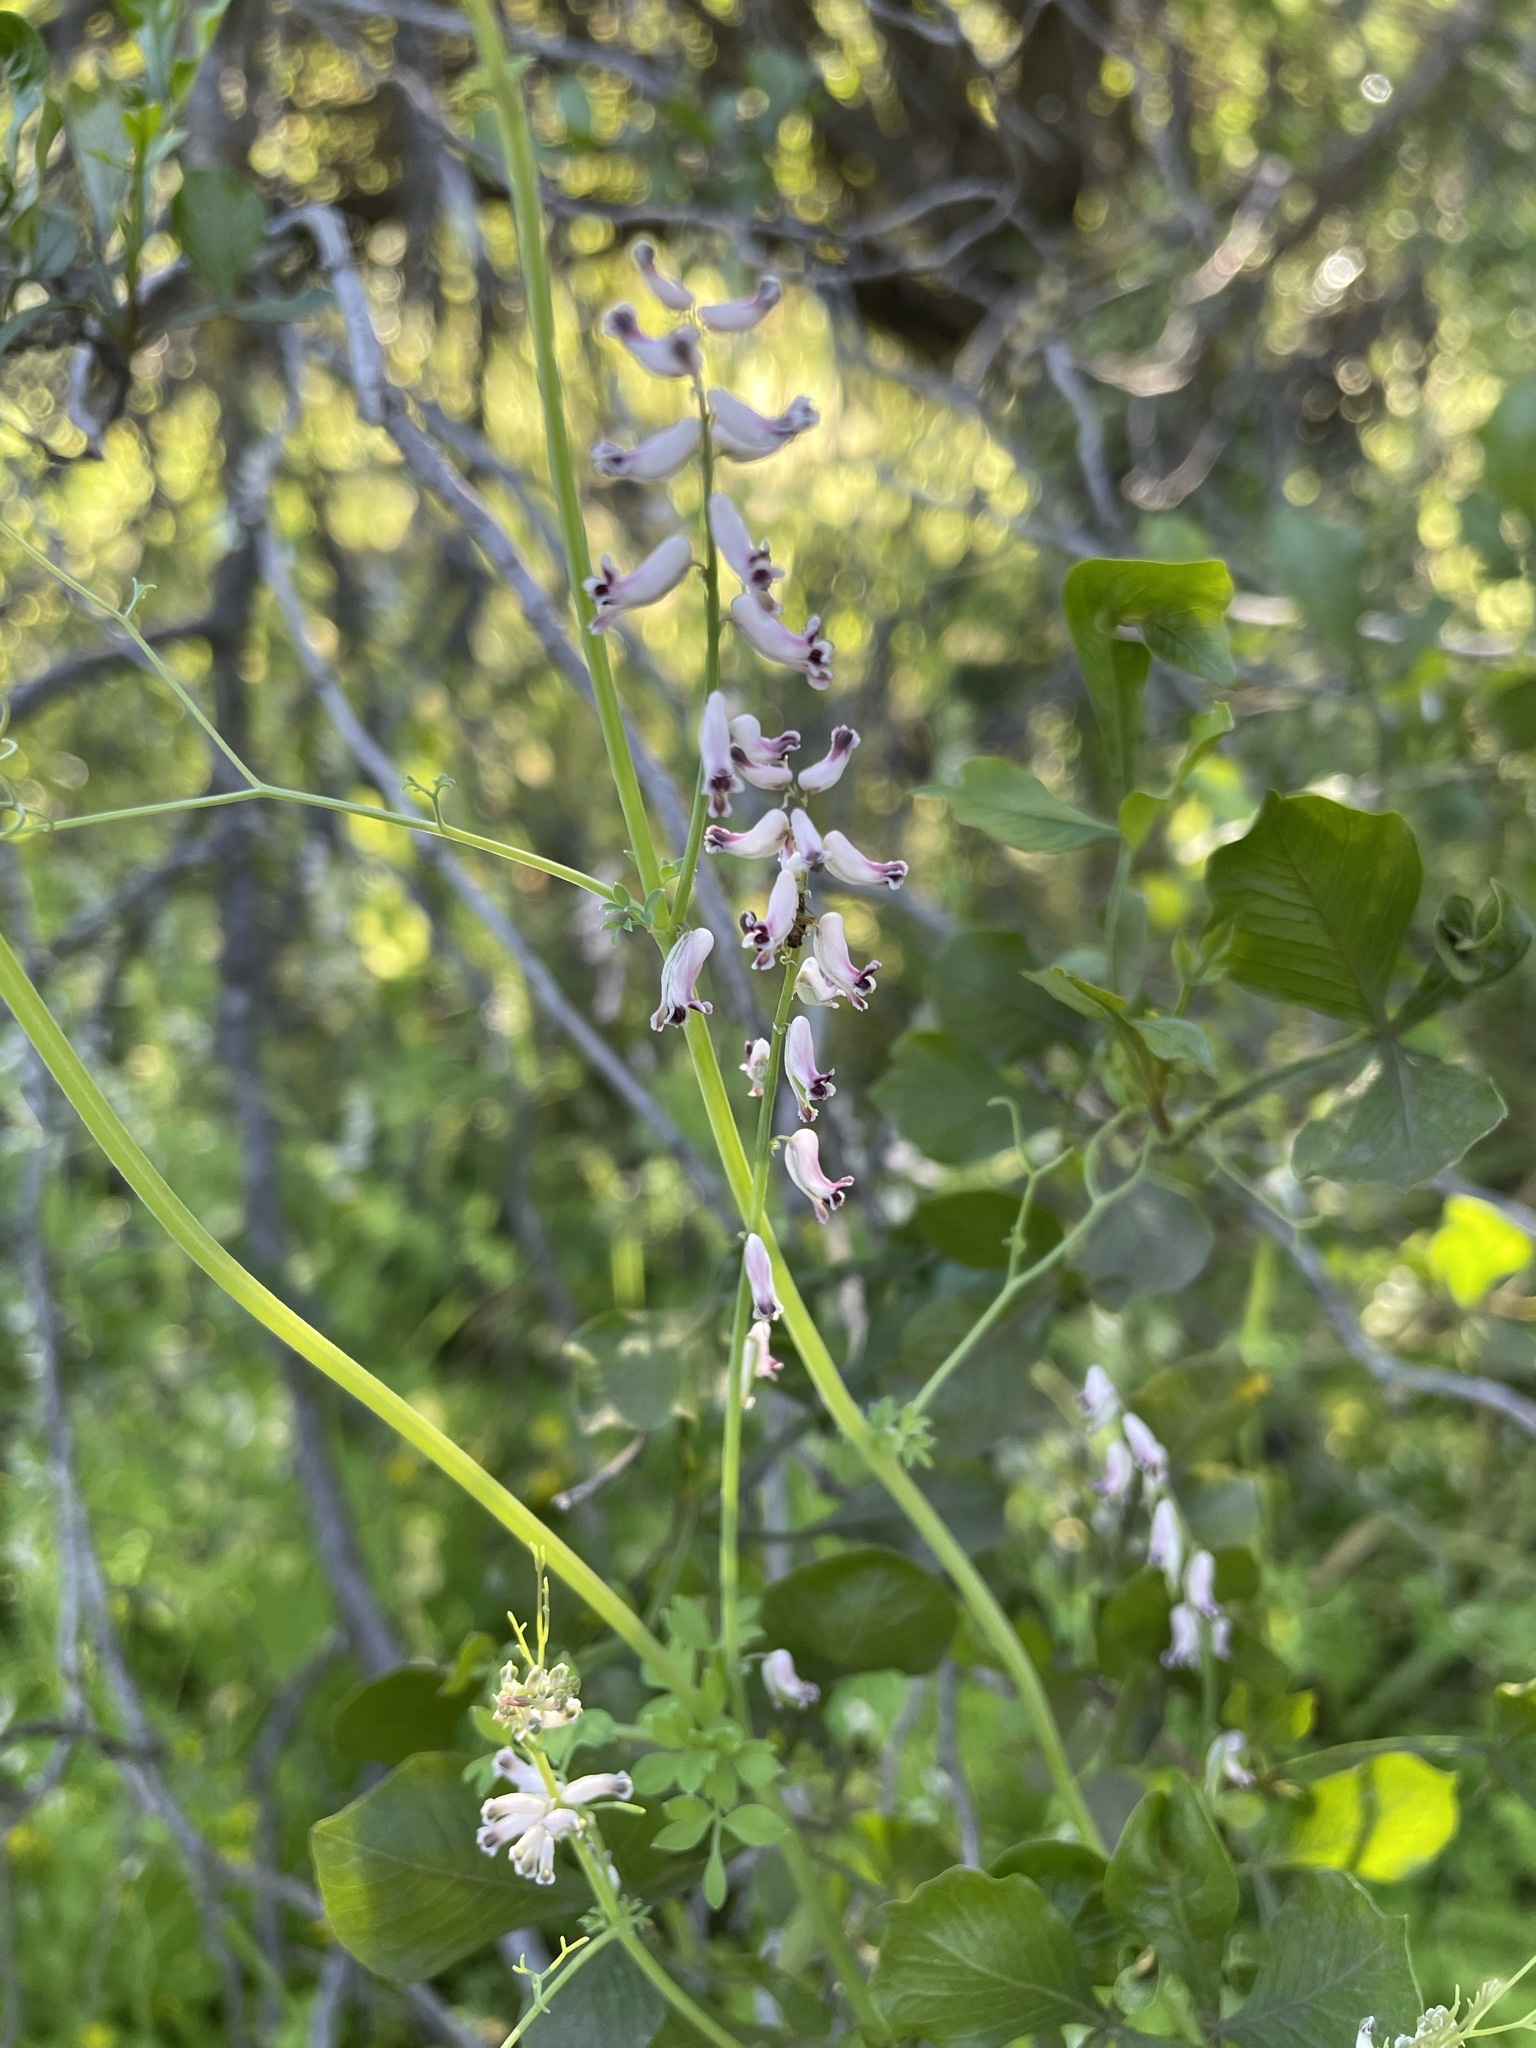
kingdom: Plantae
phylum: Tracheophyta
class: Magnoliopsida
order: Ranunculales
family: Papaveraceae
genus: Cysticapnos
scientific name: Cysticapnos cracca
